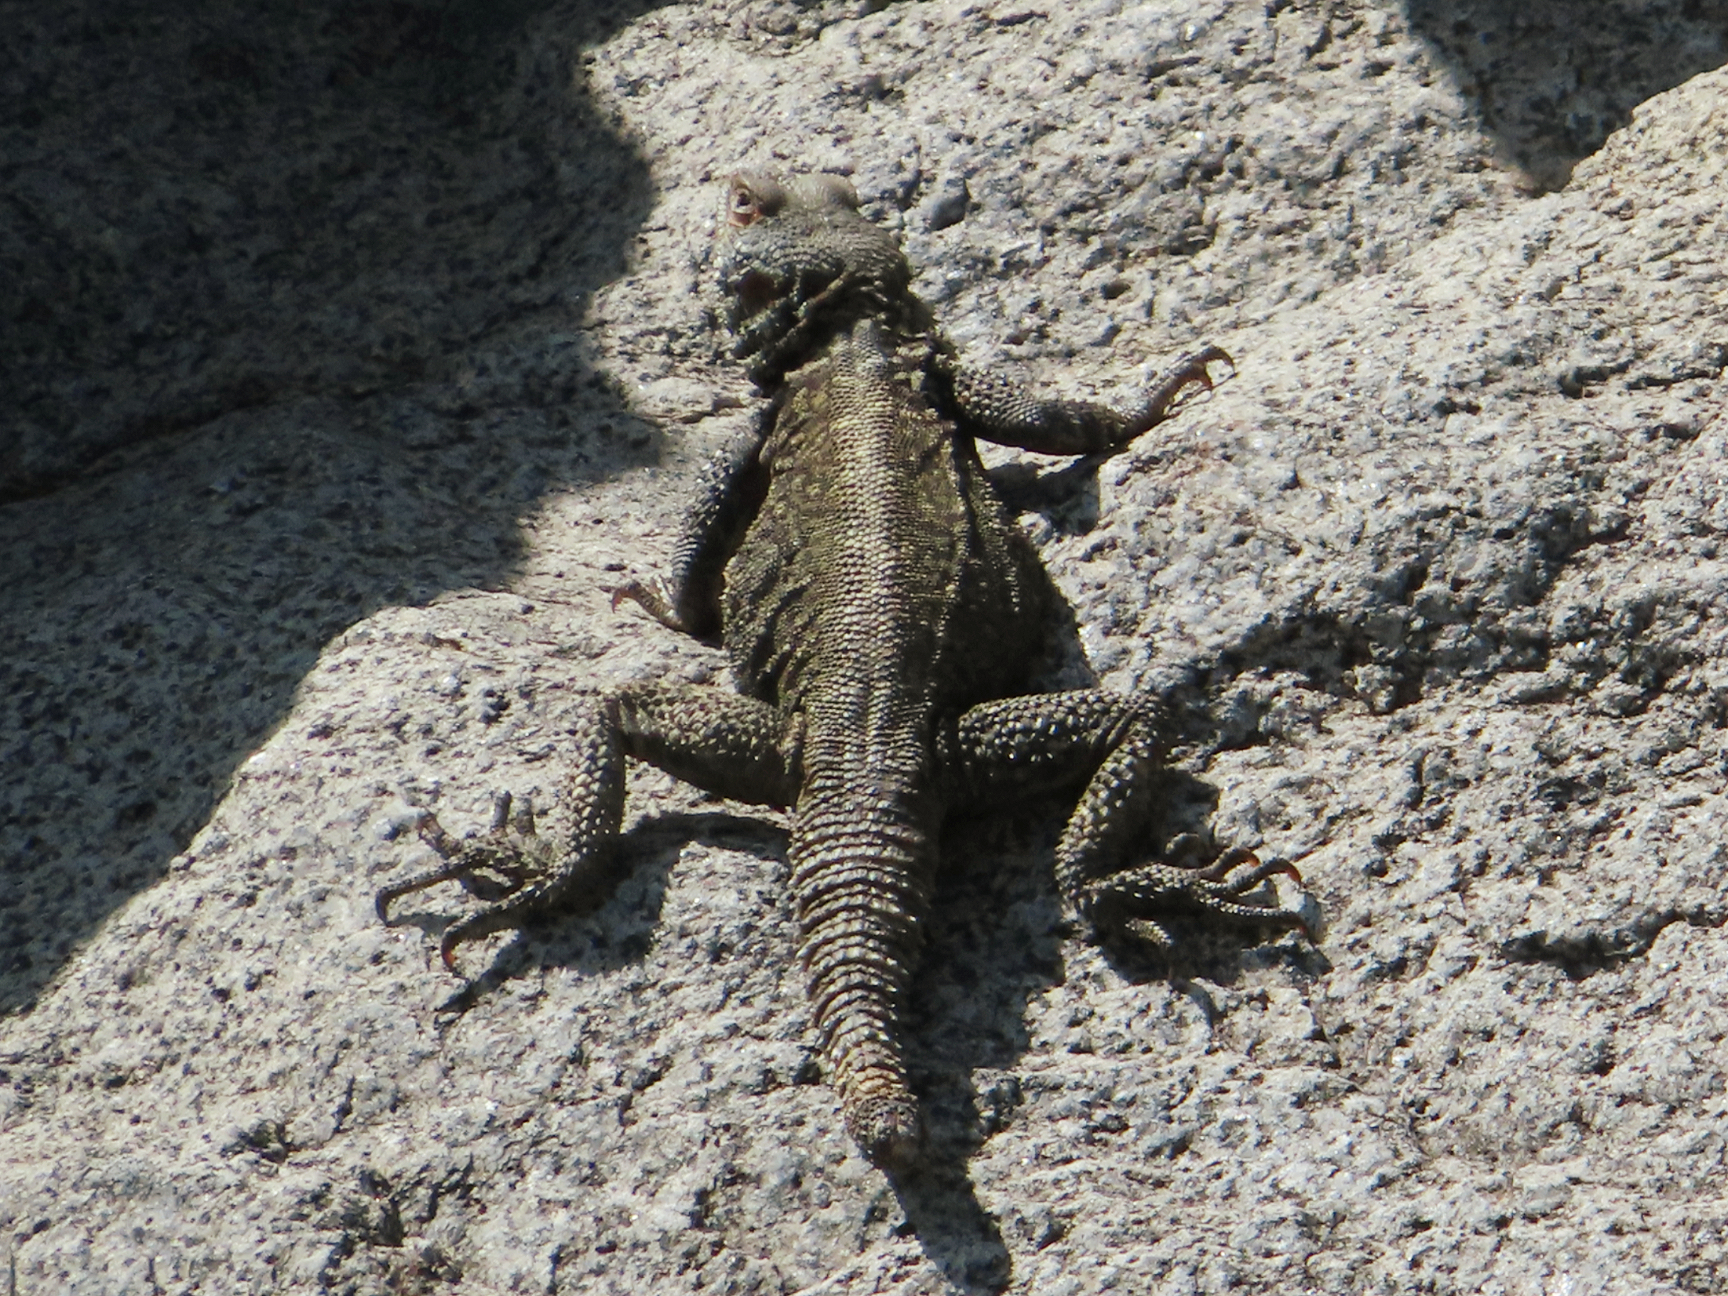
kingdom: Animalia
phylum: Chordata
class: Squamata
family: Agamidae
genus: Paralaudakia
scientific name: Paralaudakia caucasia
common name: Caucasian agama
